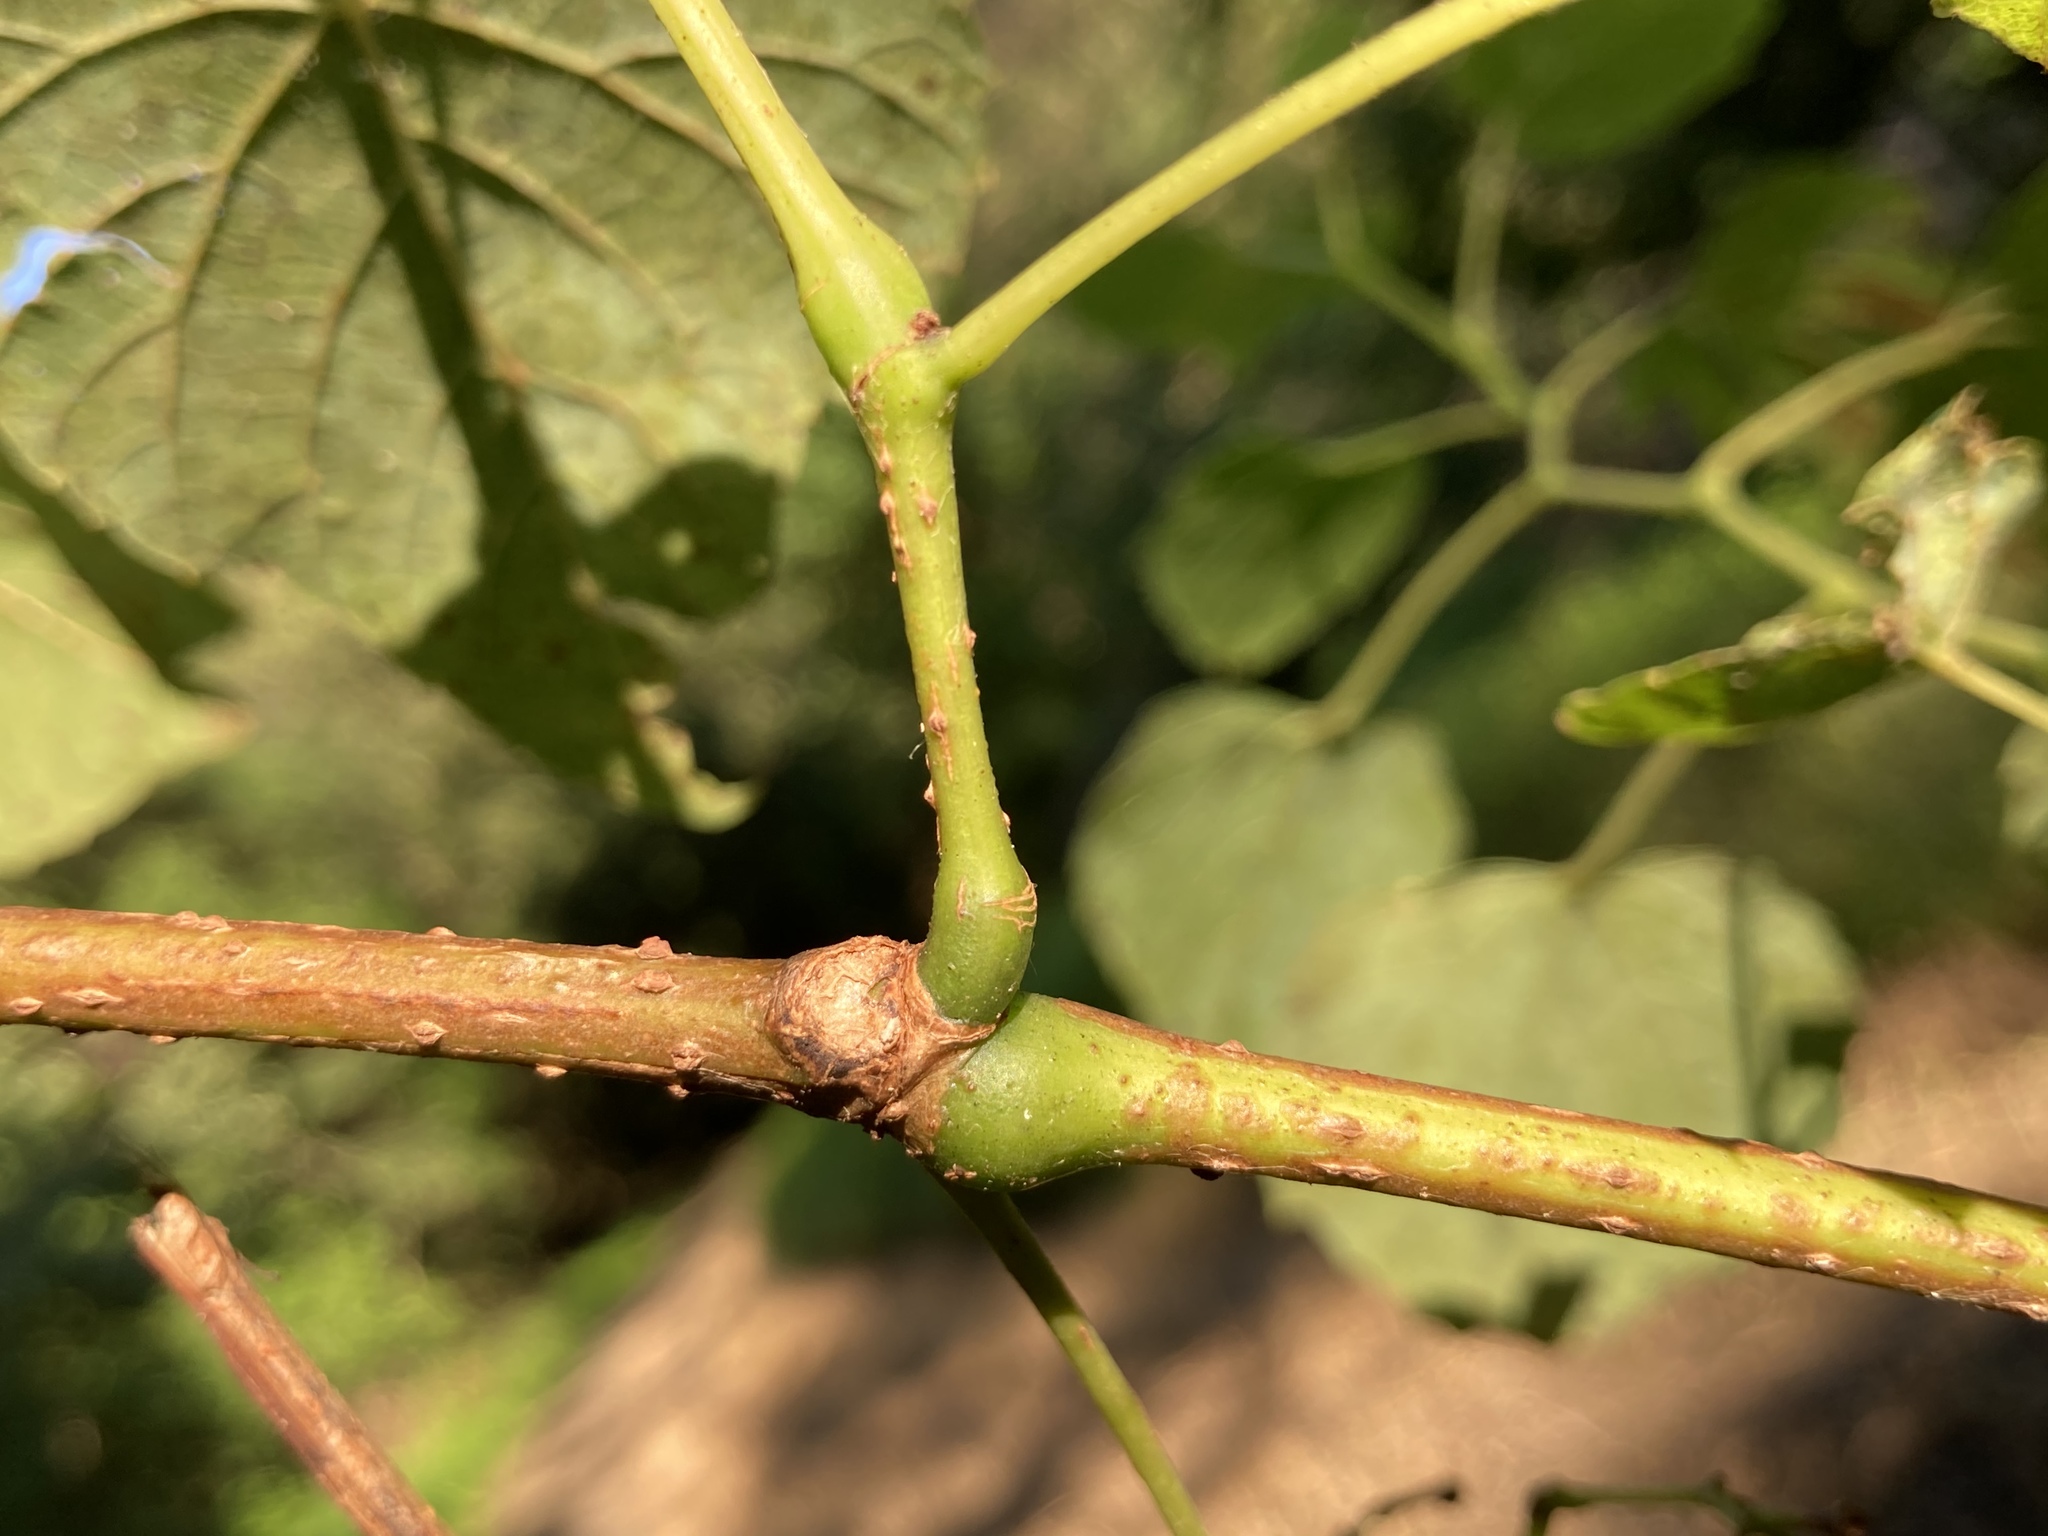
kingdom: Plantae
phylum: Tracheophyta
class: Magnoliopsida
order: Vitales
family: Vitaceae
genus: Ampelopsis
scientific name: Ampelopsis cordata
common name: Heart-leaf ampelopsis
